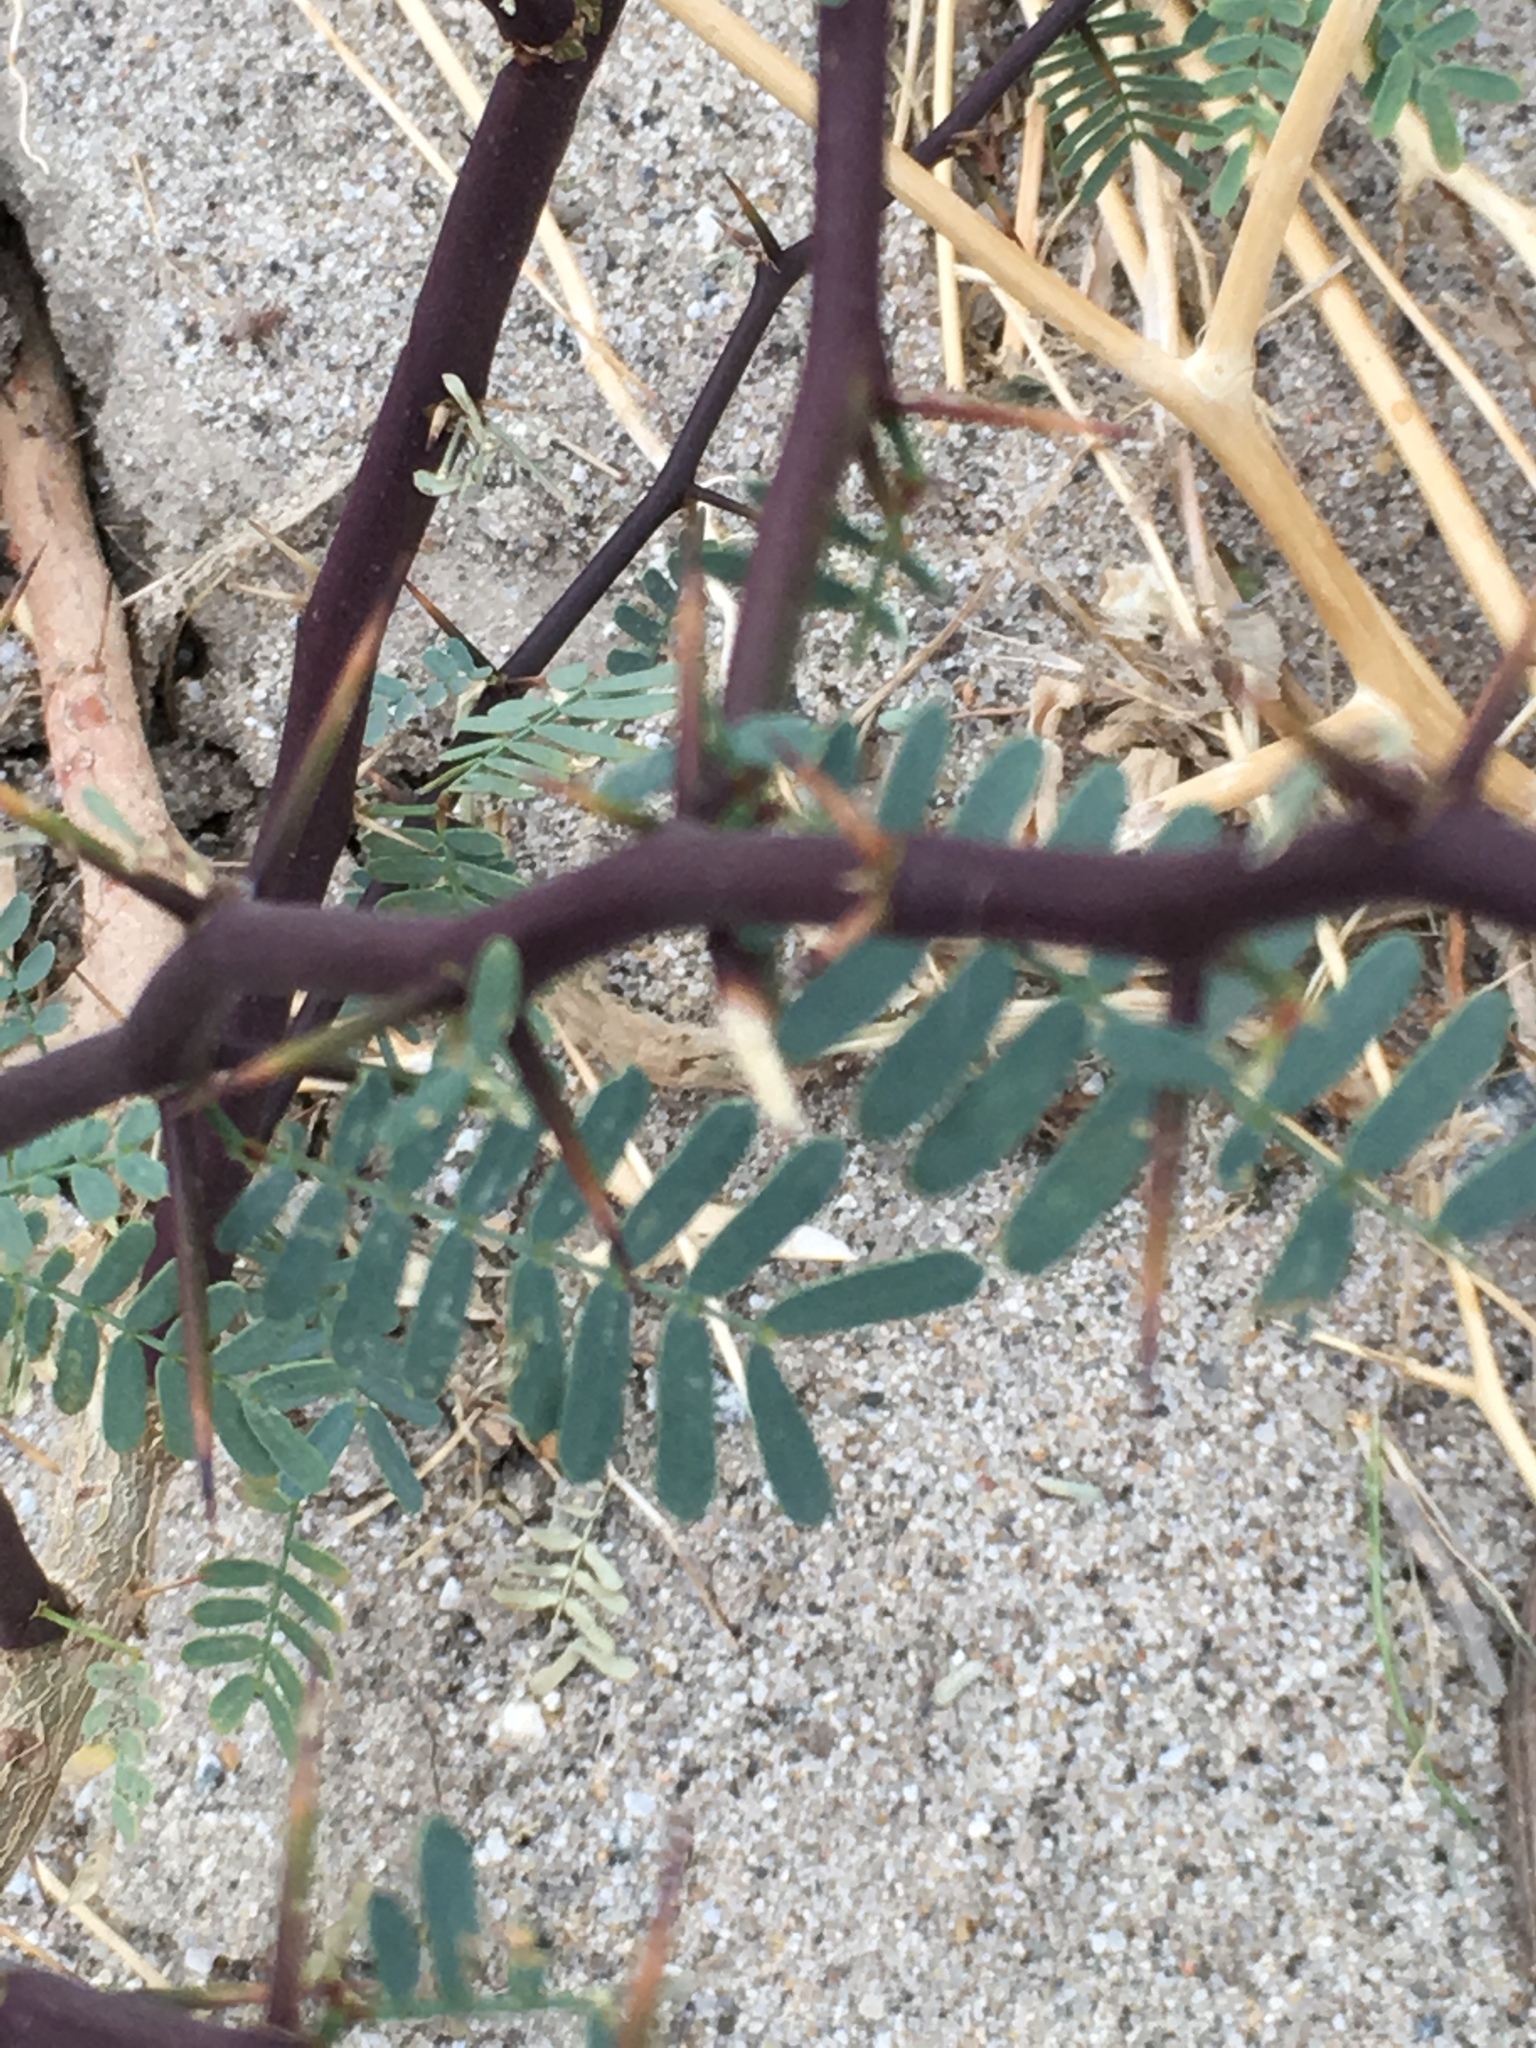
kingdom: Plantae
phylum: Tracheophyta
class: Magnoliopsida
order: Fabales
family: Fabaceae
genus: Prosopis
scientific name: Prosopis pubescens
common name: Screw-bean
